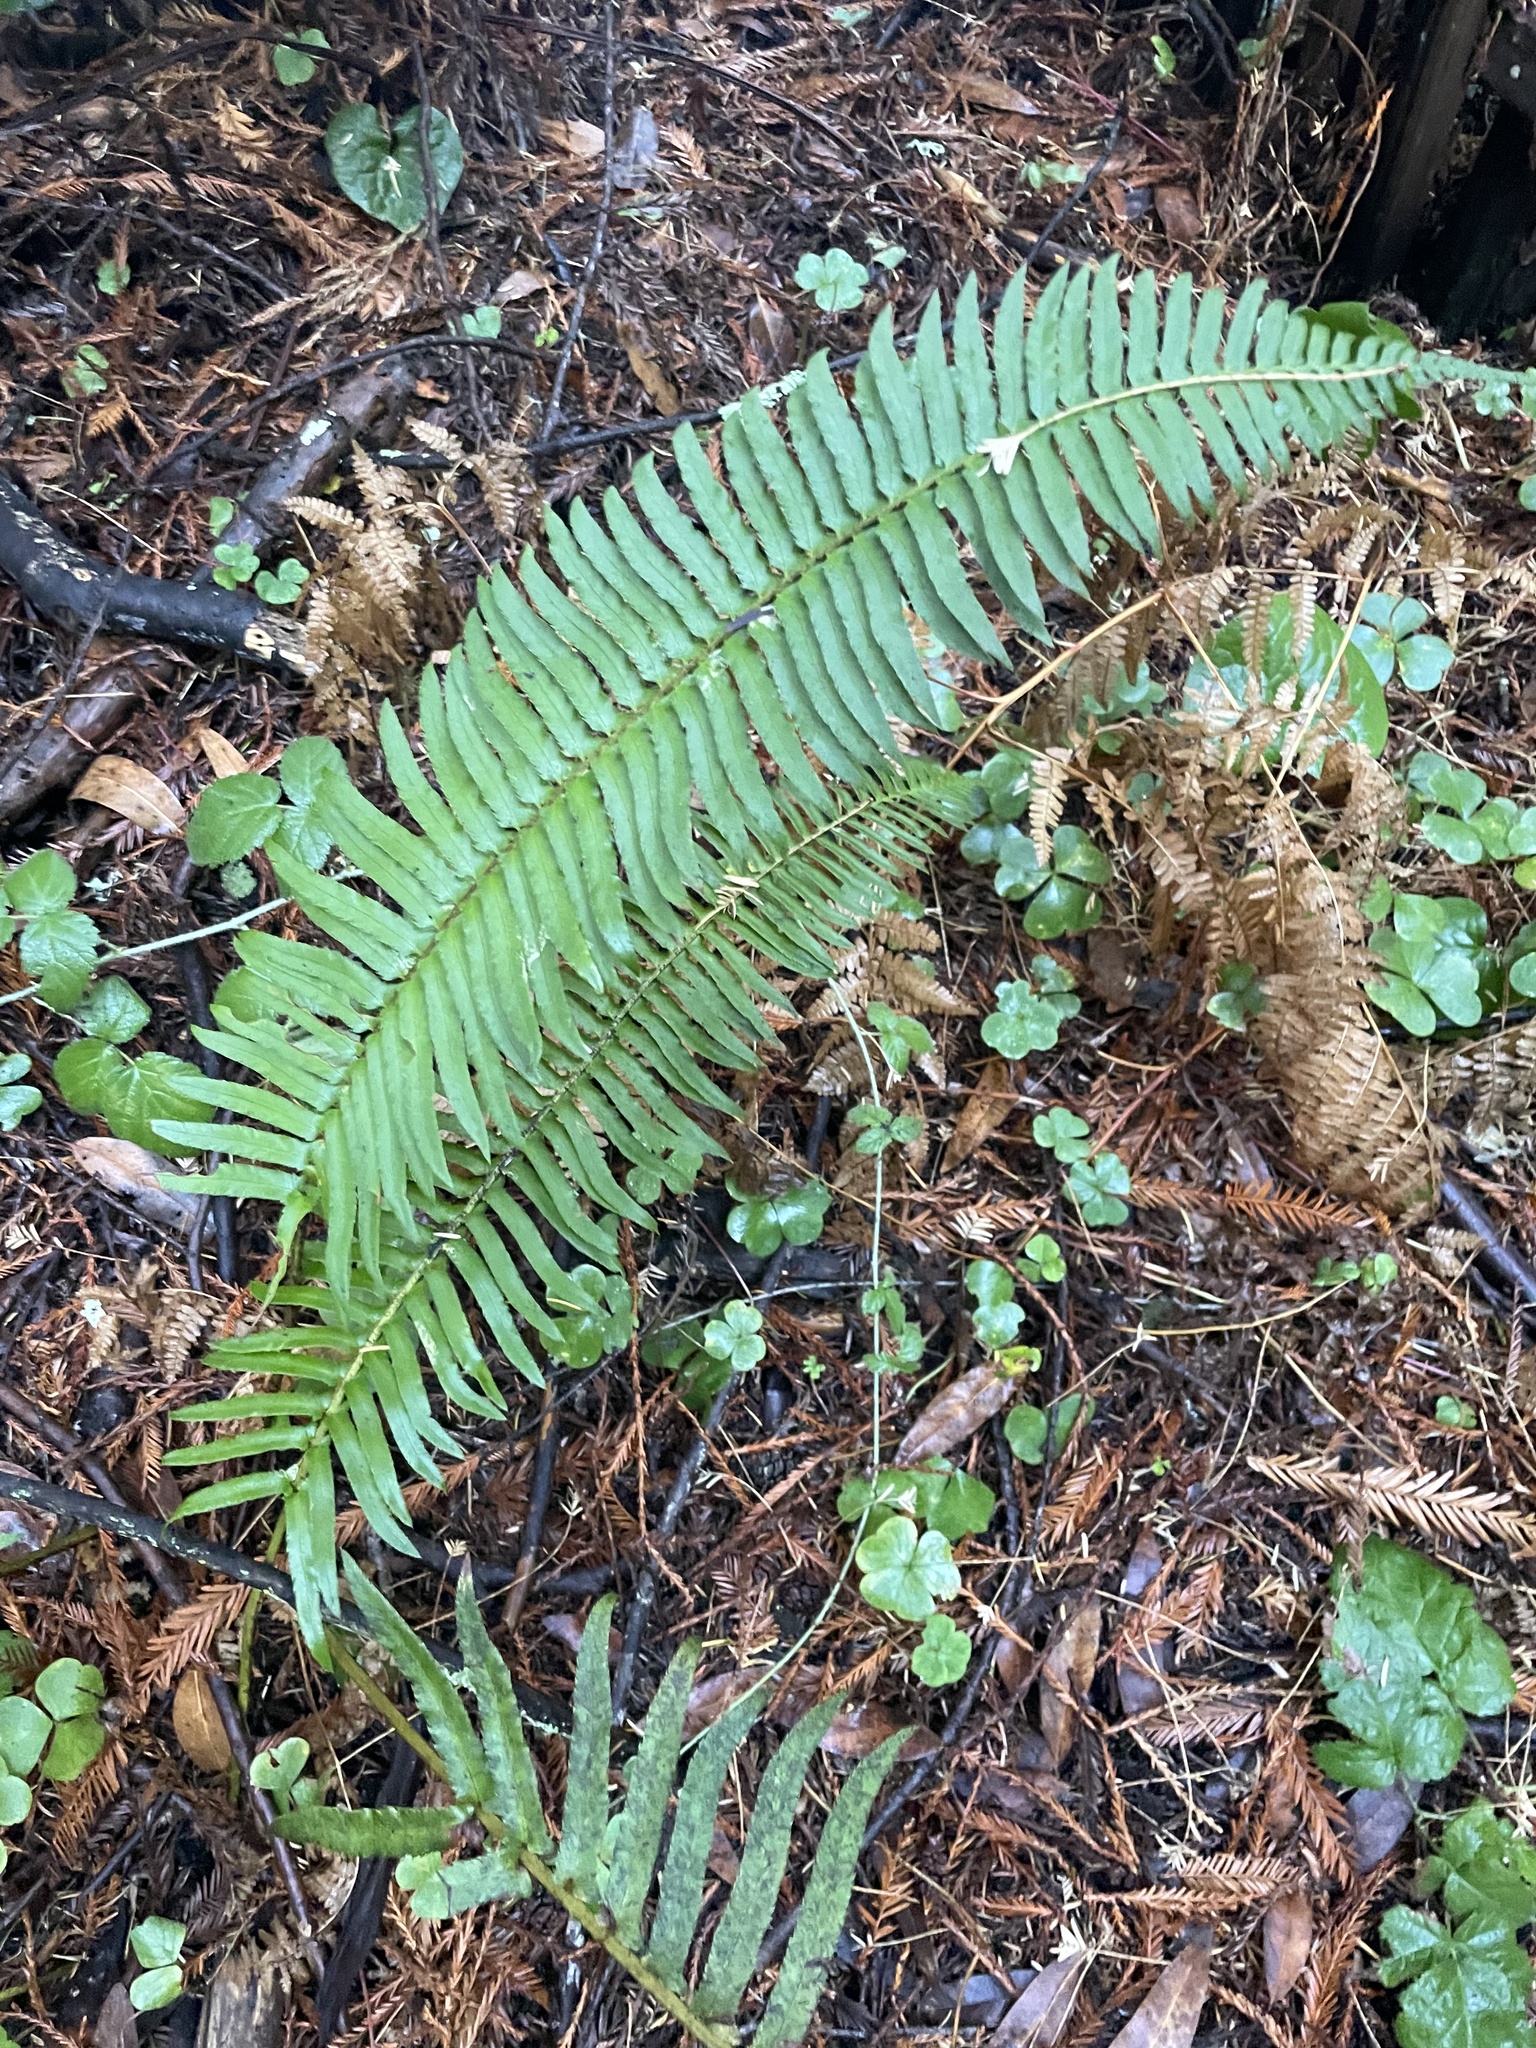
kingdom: Plantae
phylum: Tracheophyta
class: Polypodiopsida
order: Polypodiales
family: Dryopteridaceae
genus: Polystichum
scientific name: Polystichum munitum
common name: Western sword-fern
